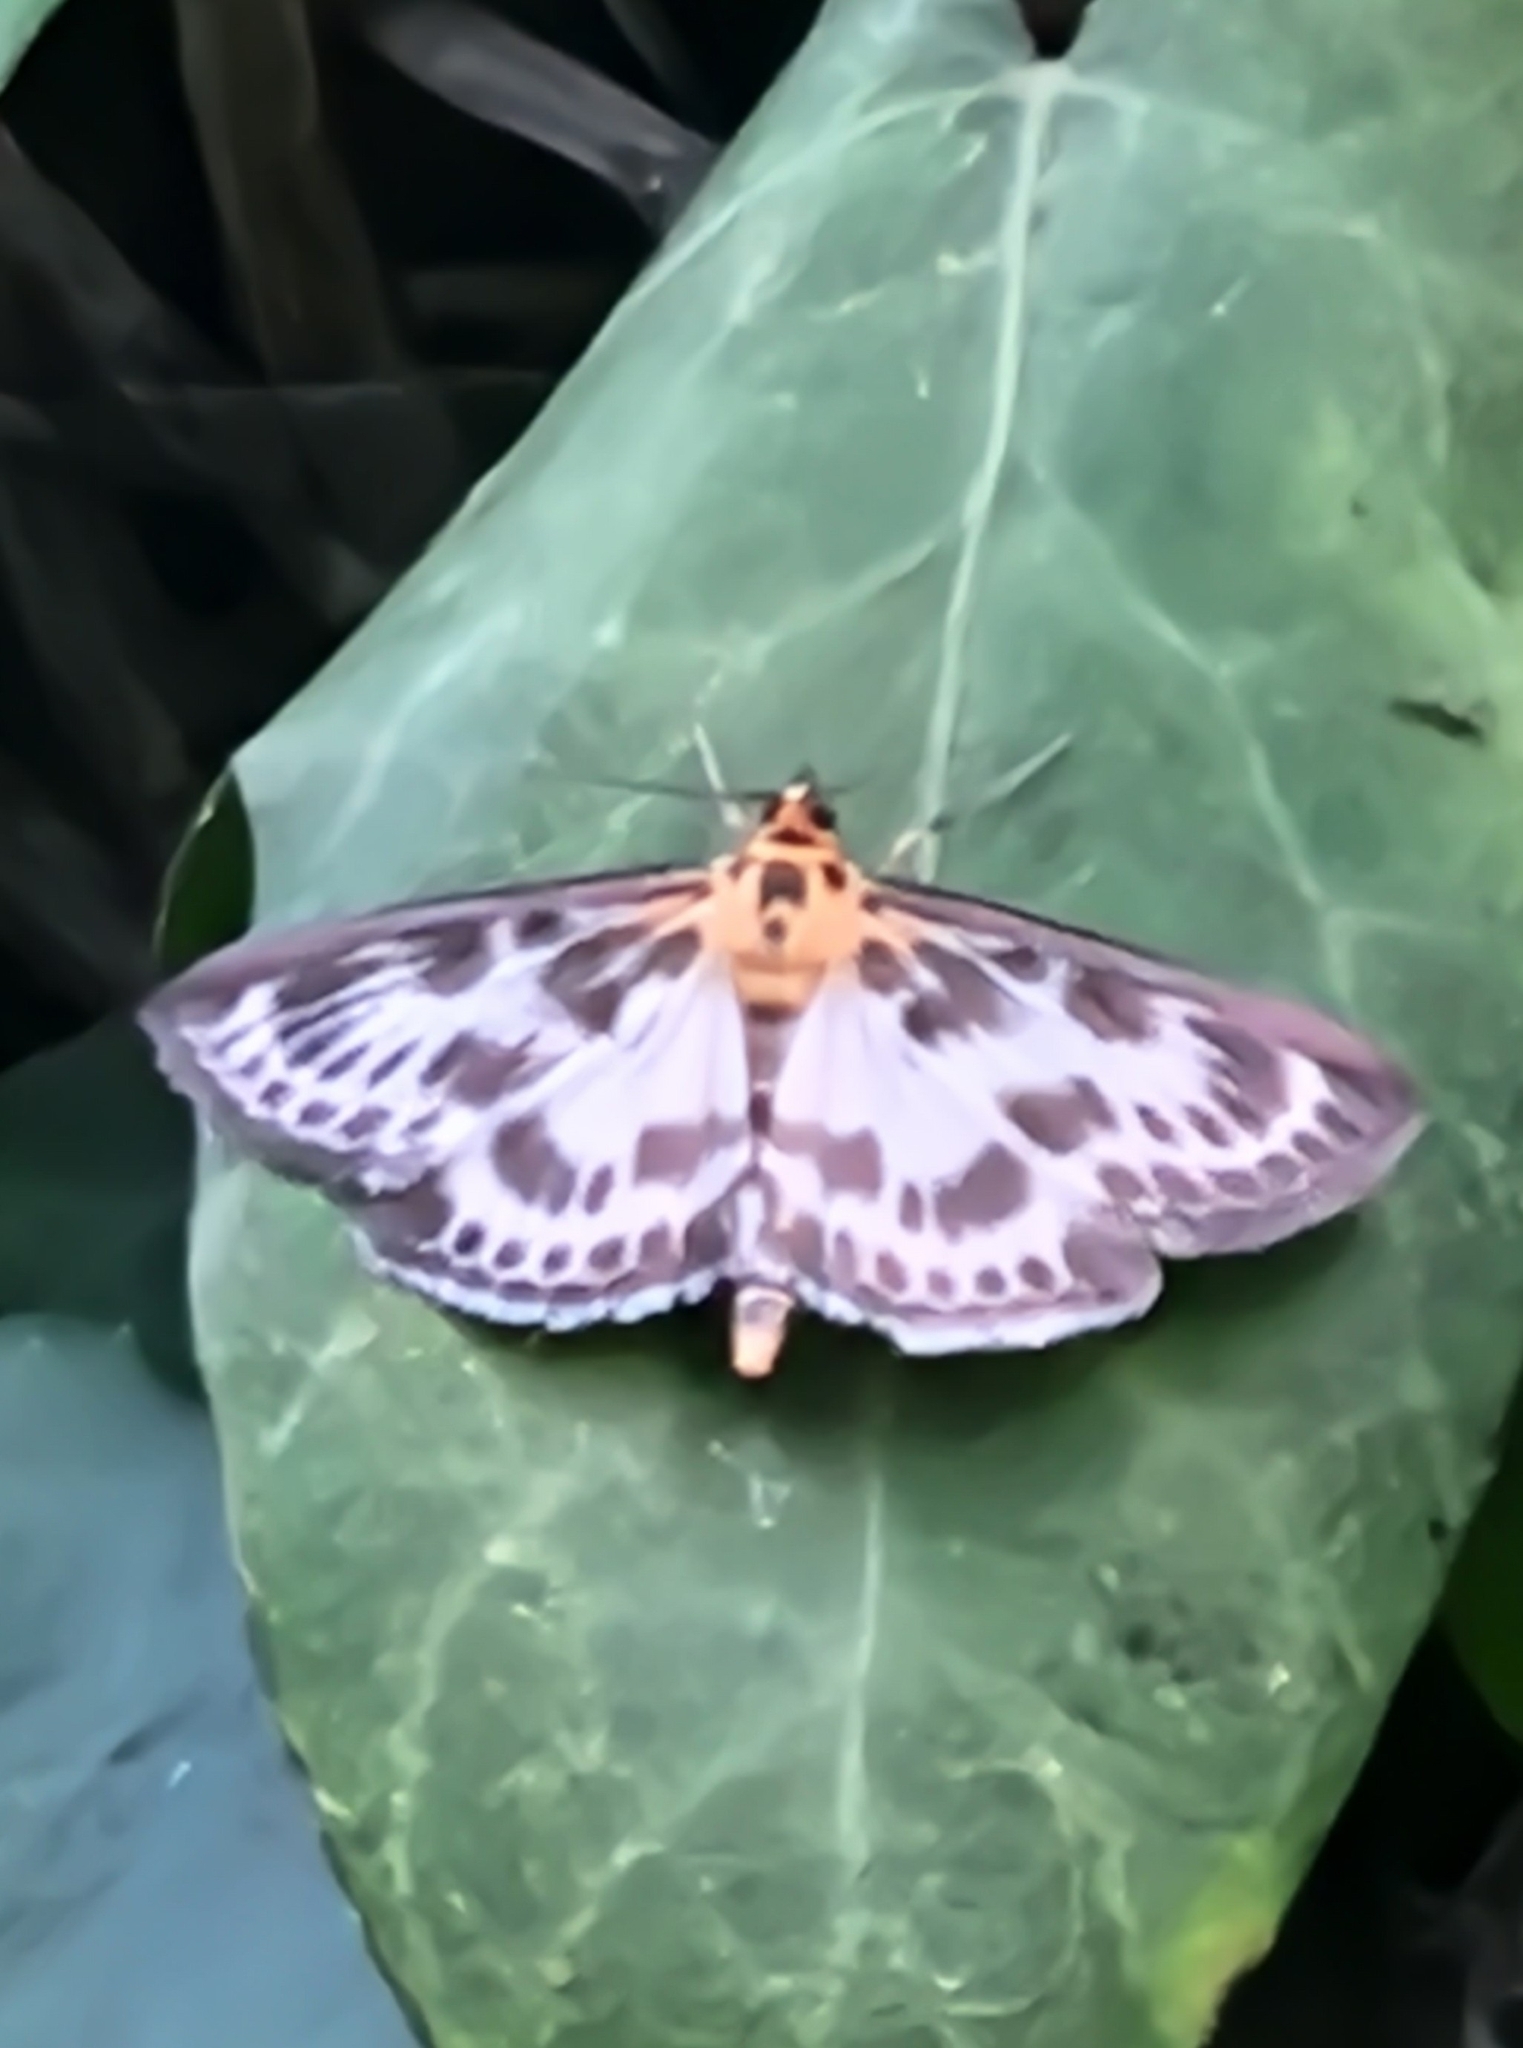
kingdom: Animalia
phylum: Arthropoda
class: Insecta
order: Lepidoptera
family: Crambidae
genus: Anania
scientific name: Anania hortulata
